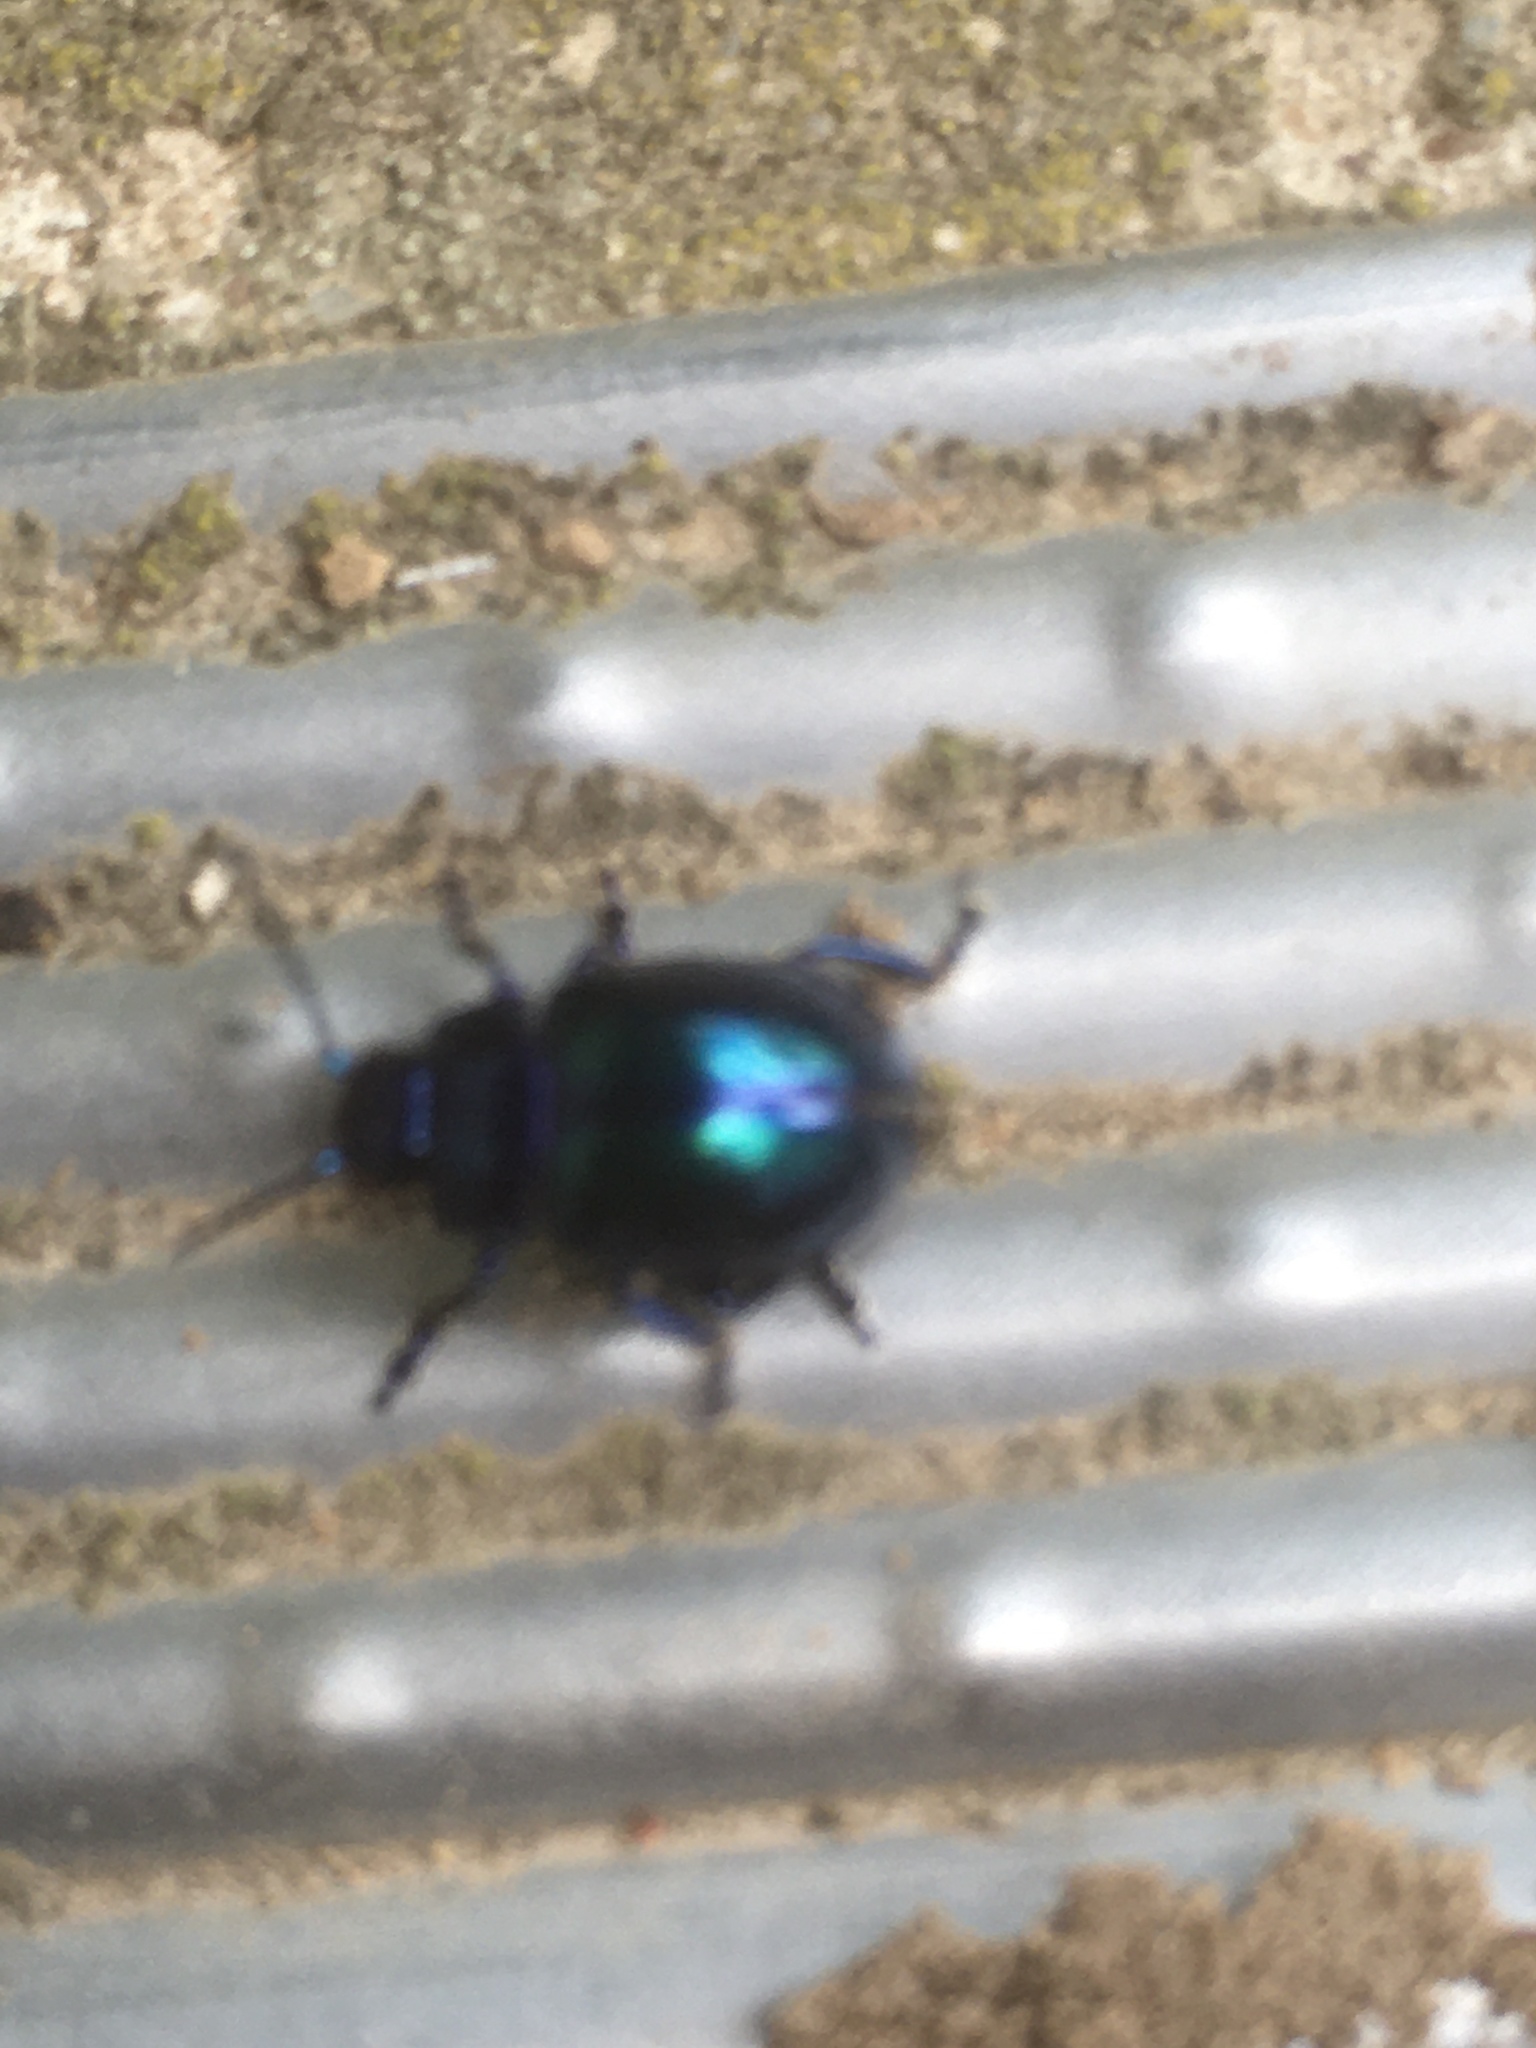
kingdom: Animalia
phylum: Arthropoda
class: Insecta
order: Coleoptera
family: Chrysomelidae
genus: Chrysolina
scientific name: Chrysolina coerulans
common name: Blue mint beetle
